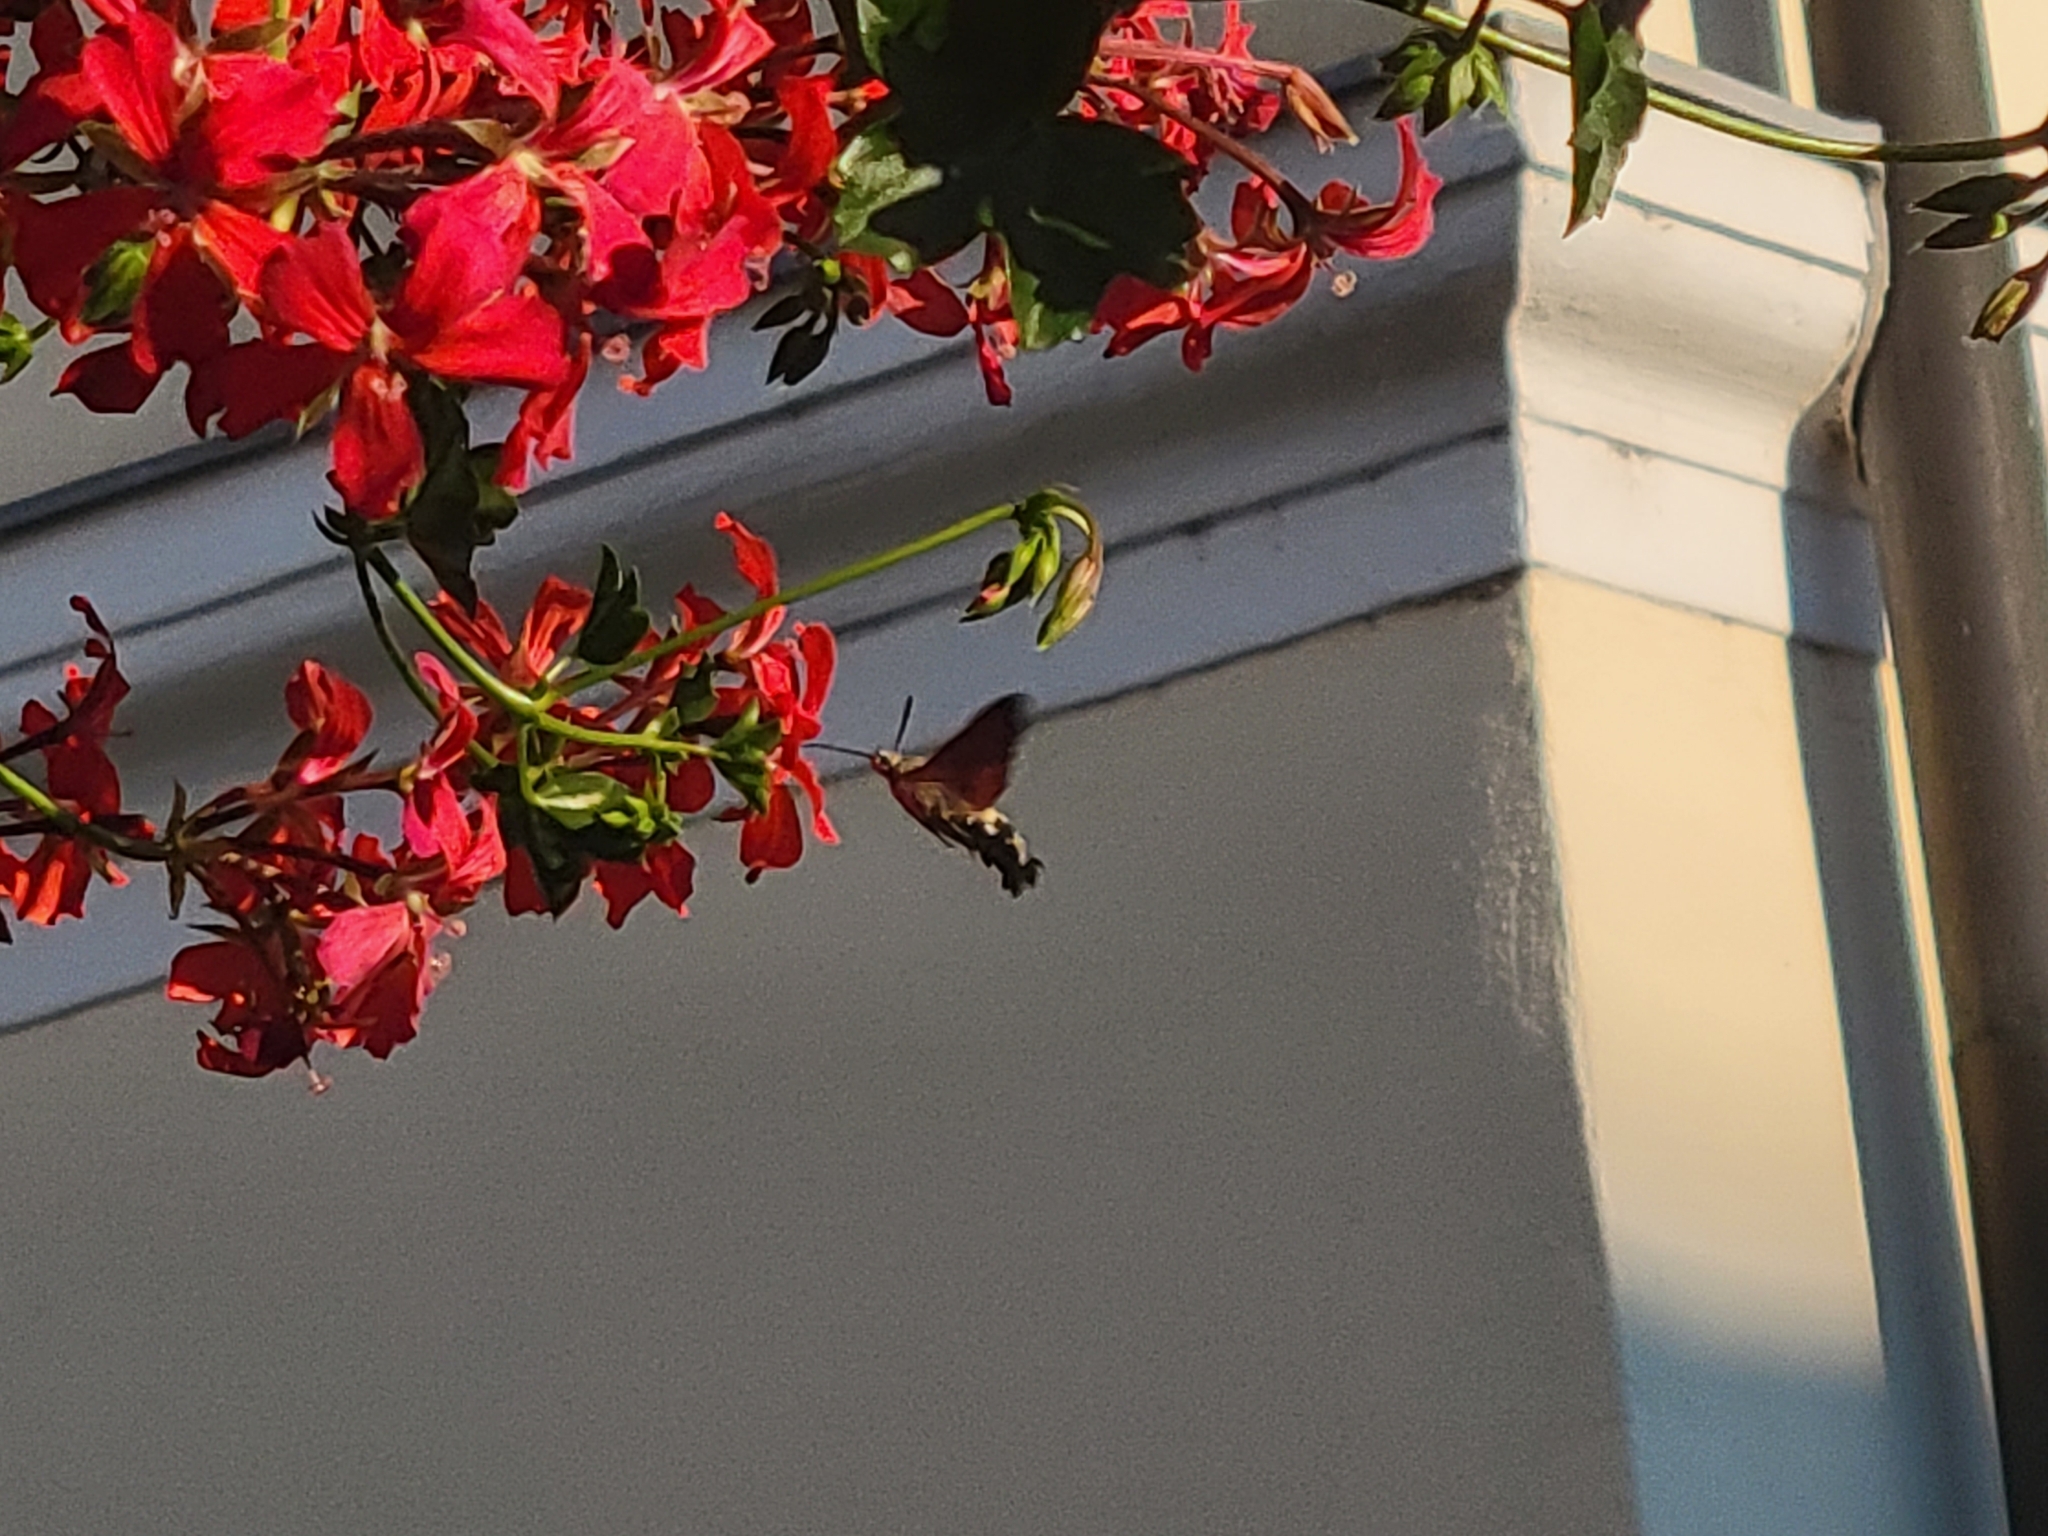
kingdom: Animalia
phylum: Arthropoda
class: Insecta
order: Lepidoptera
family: Sphingidae
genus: Macroglossum
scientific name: Macroglossum stellatarum
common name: Humming-bird hawk-moth
